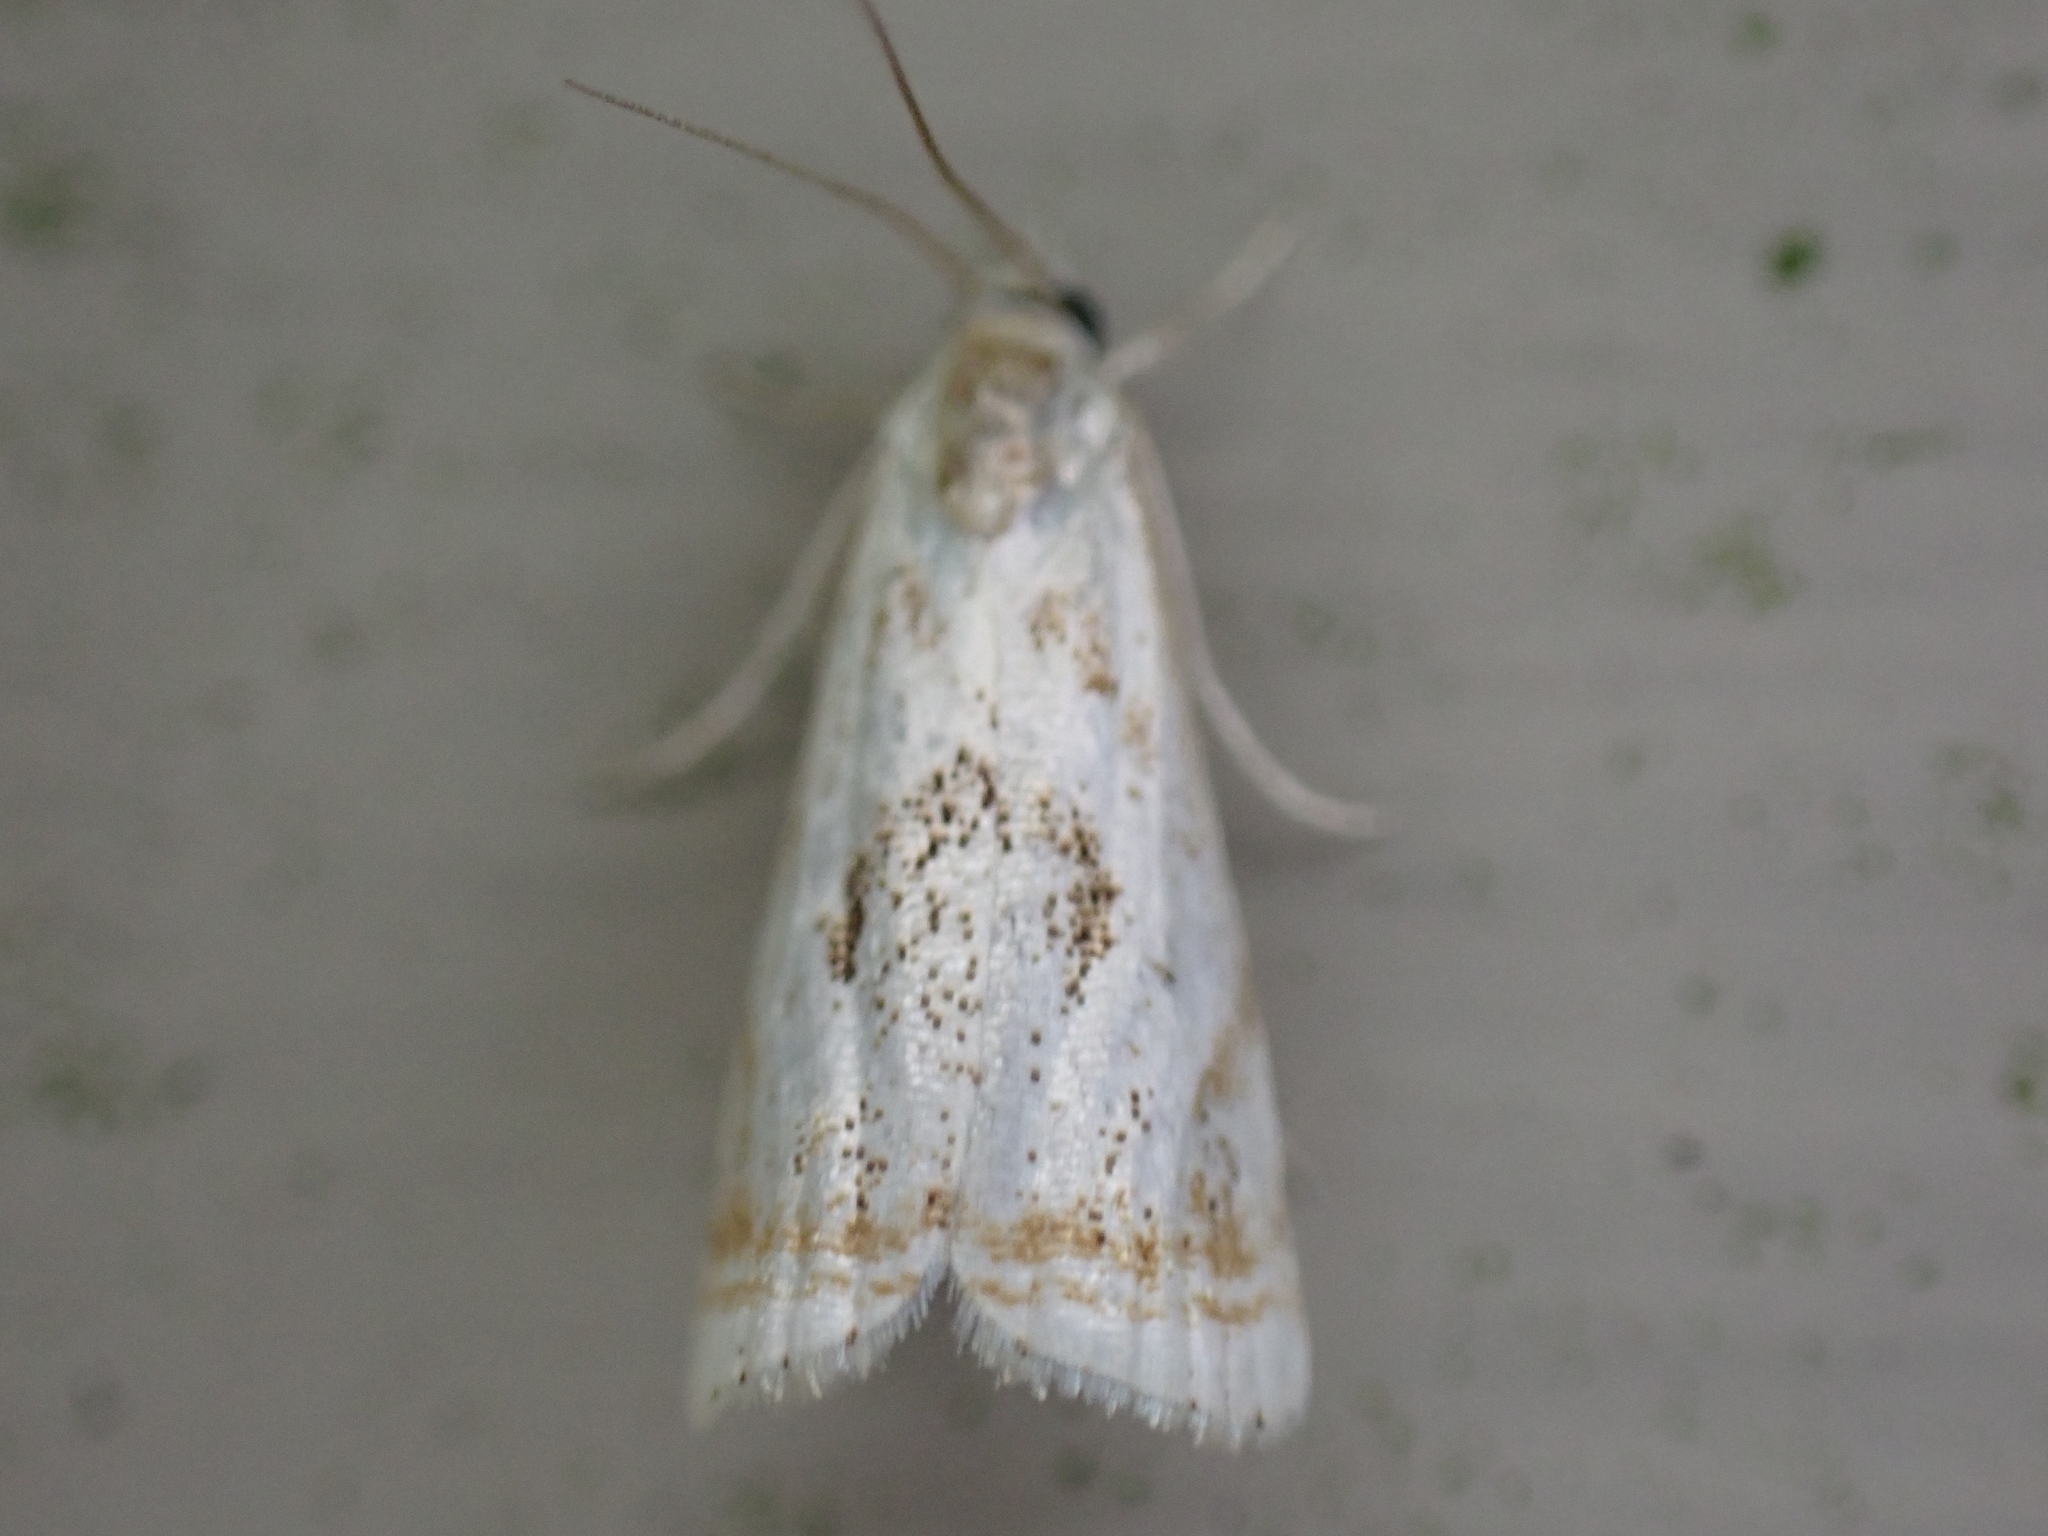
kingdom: Animalia
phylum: Arthropoda
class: Insecta
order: Lepidoptera
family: Crambidae
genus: Microcrambus
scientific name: Microcrambus elegans
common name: Elegant grass-veneer
